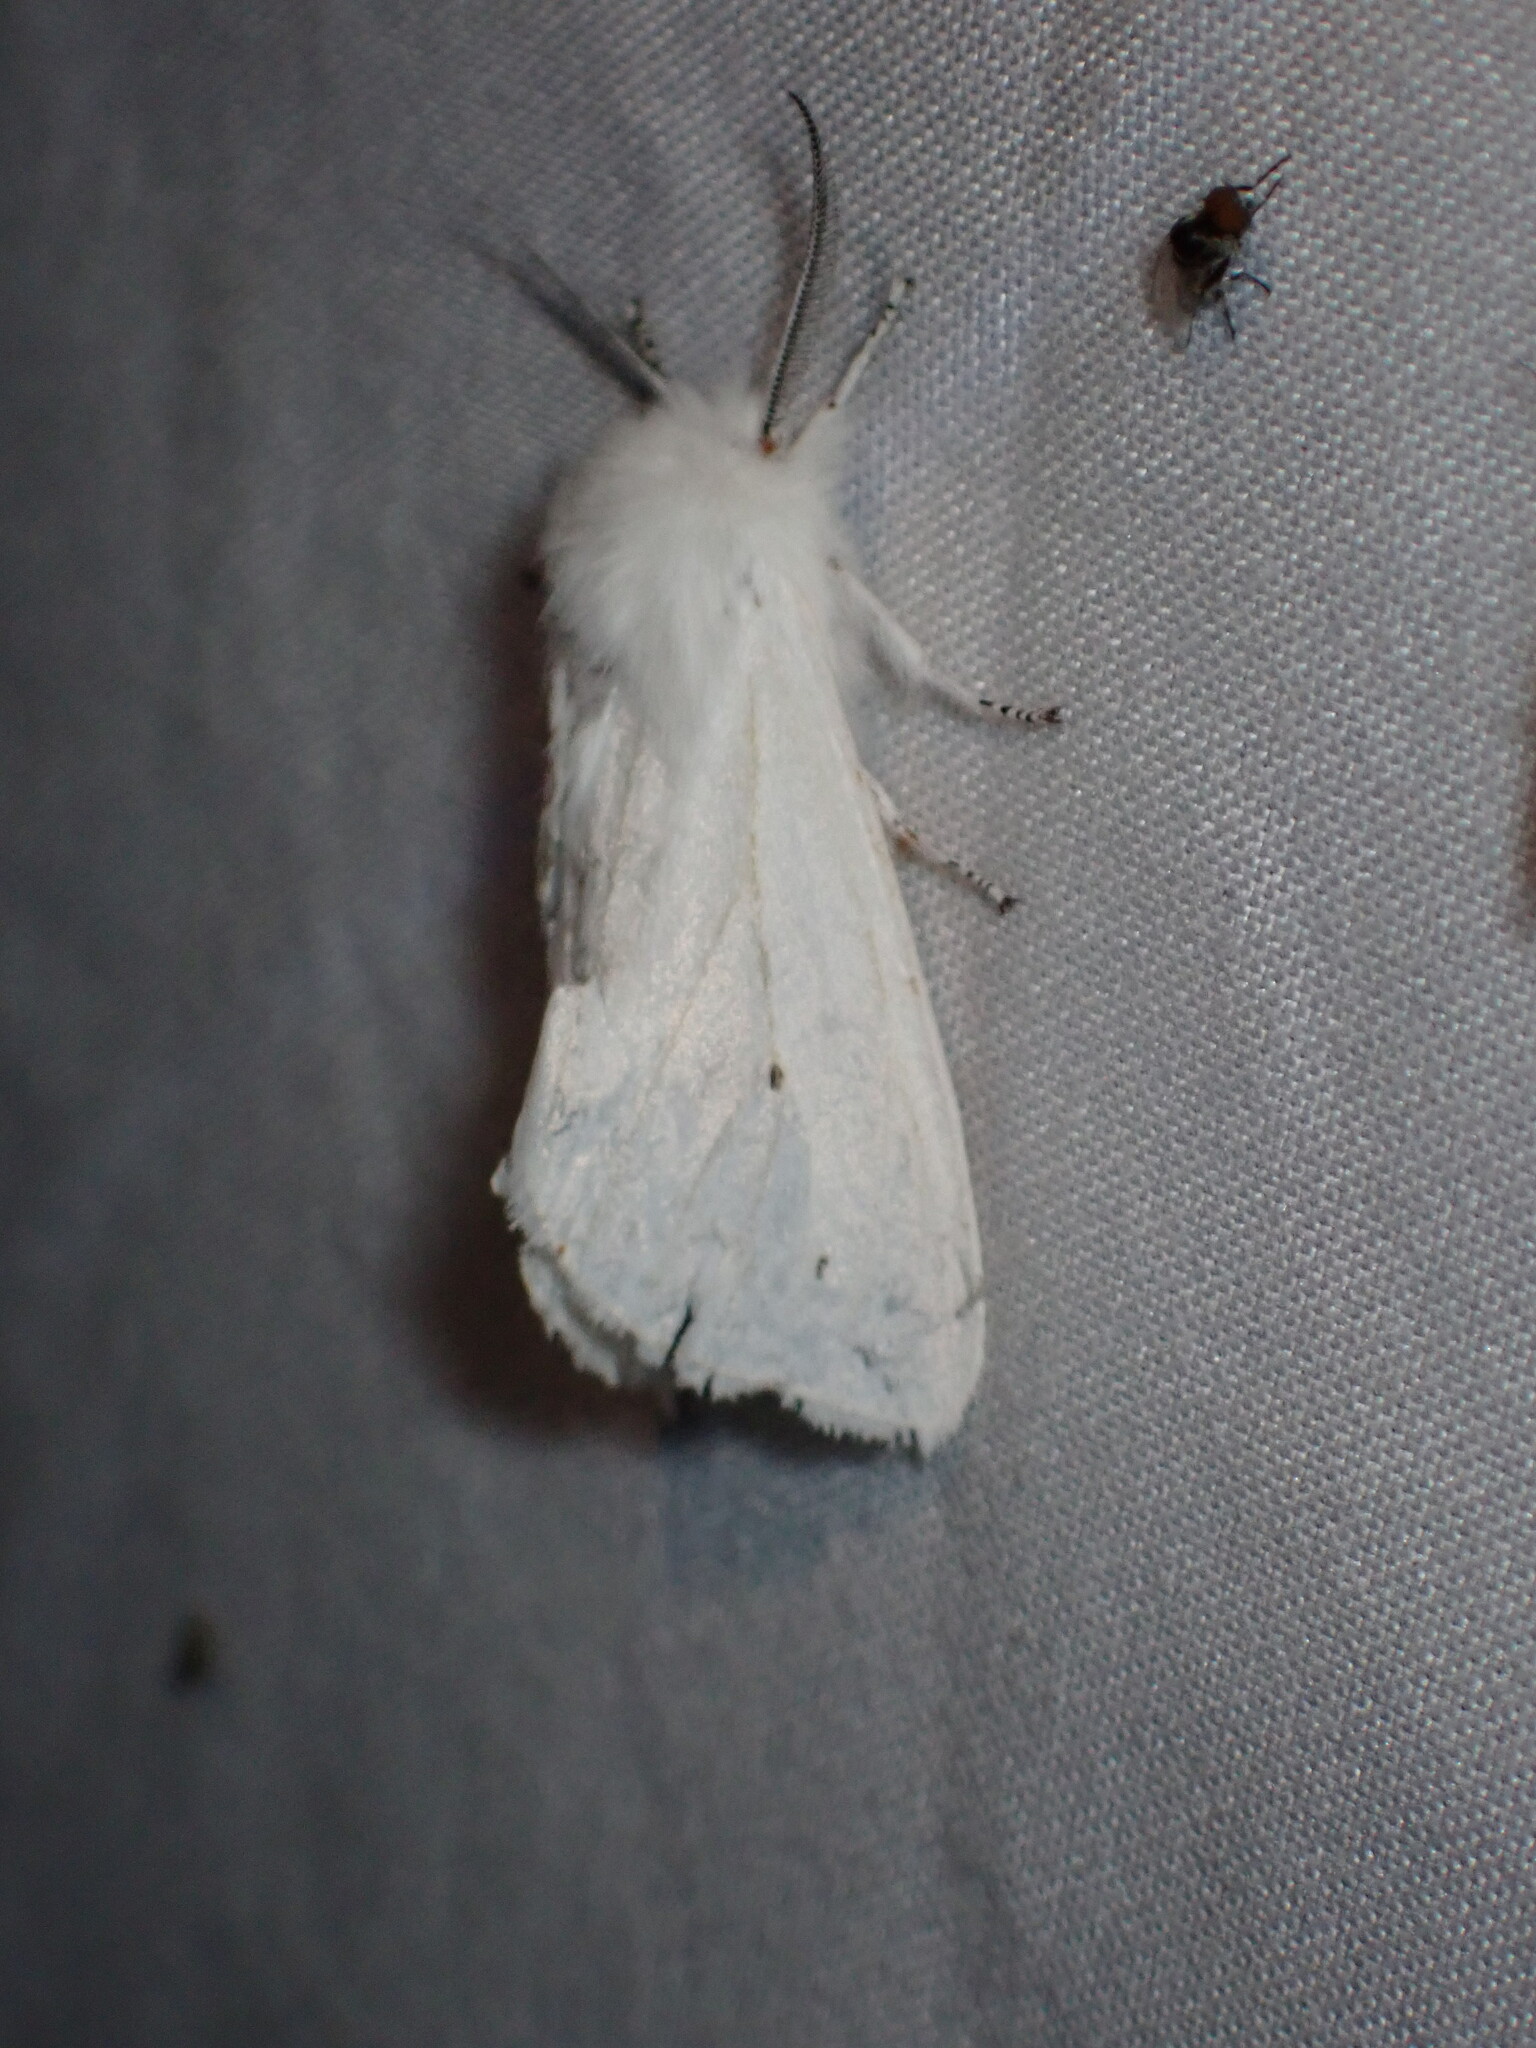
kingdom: Animalia
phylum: Arthropoda
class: Insecta
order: Lepidoptera
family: Erebidae
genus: Spilosoma
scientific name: Spilosoma virginica
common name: Virginia tiger moth
